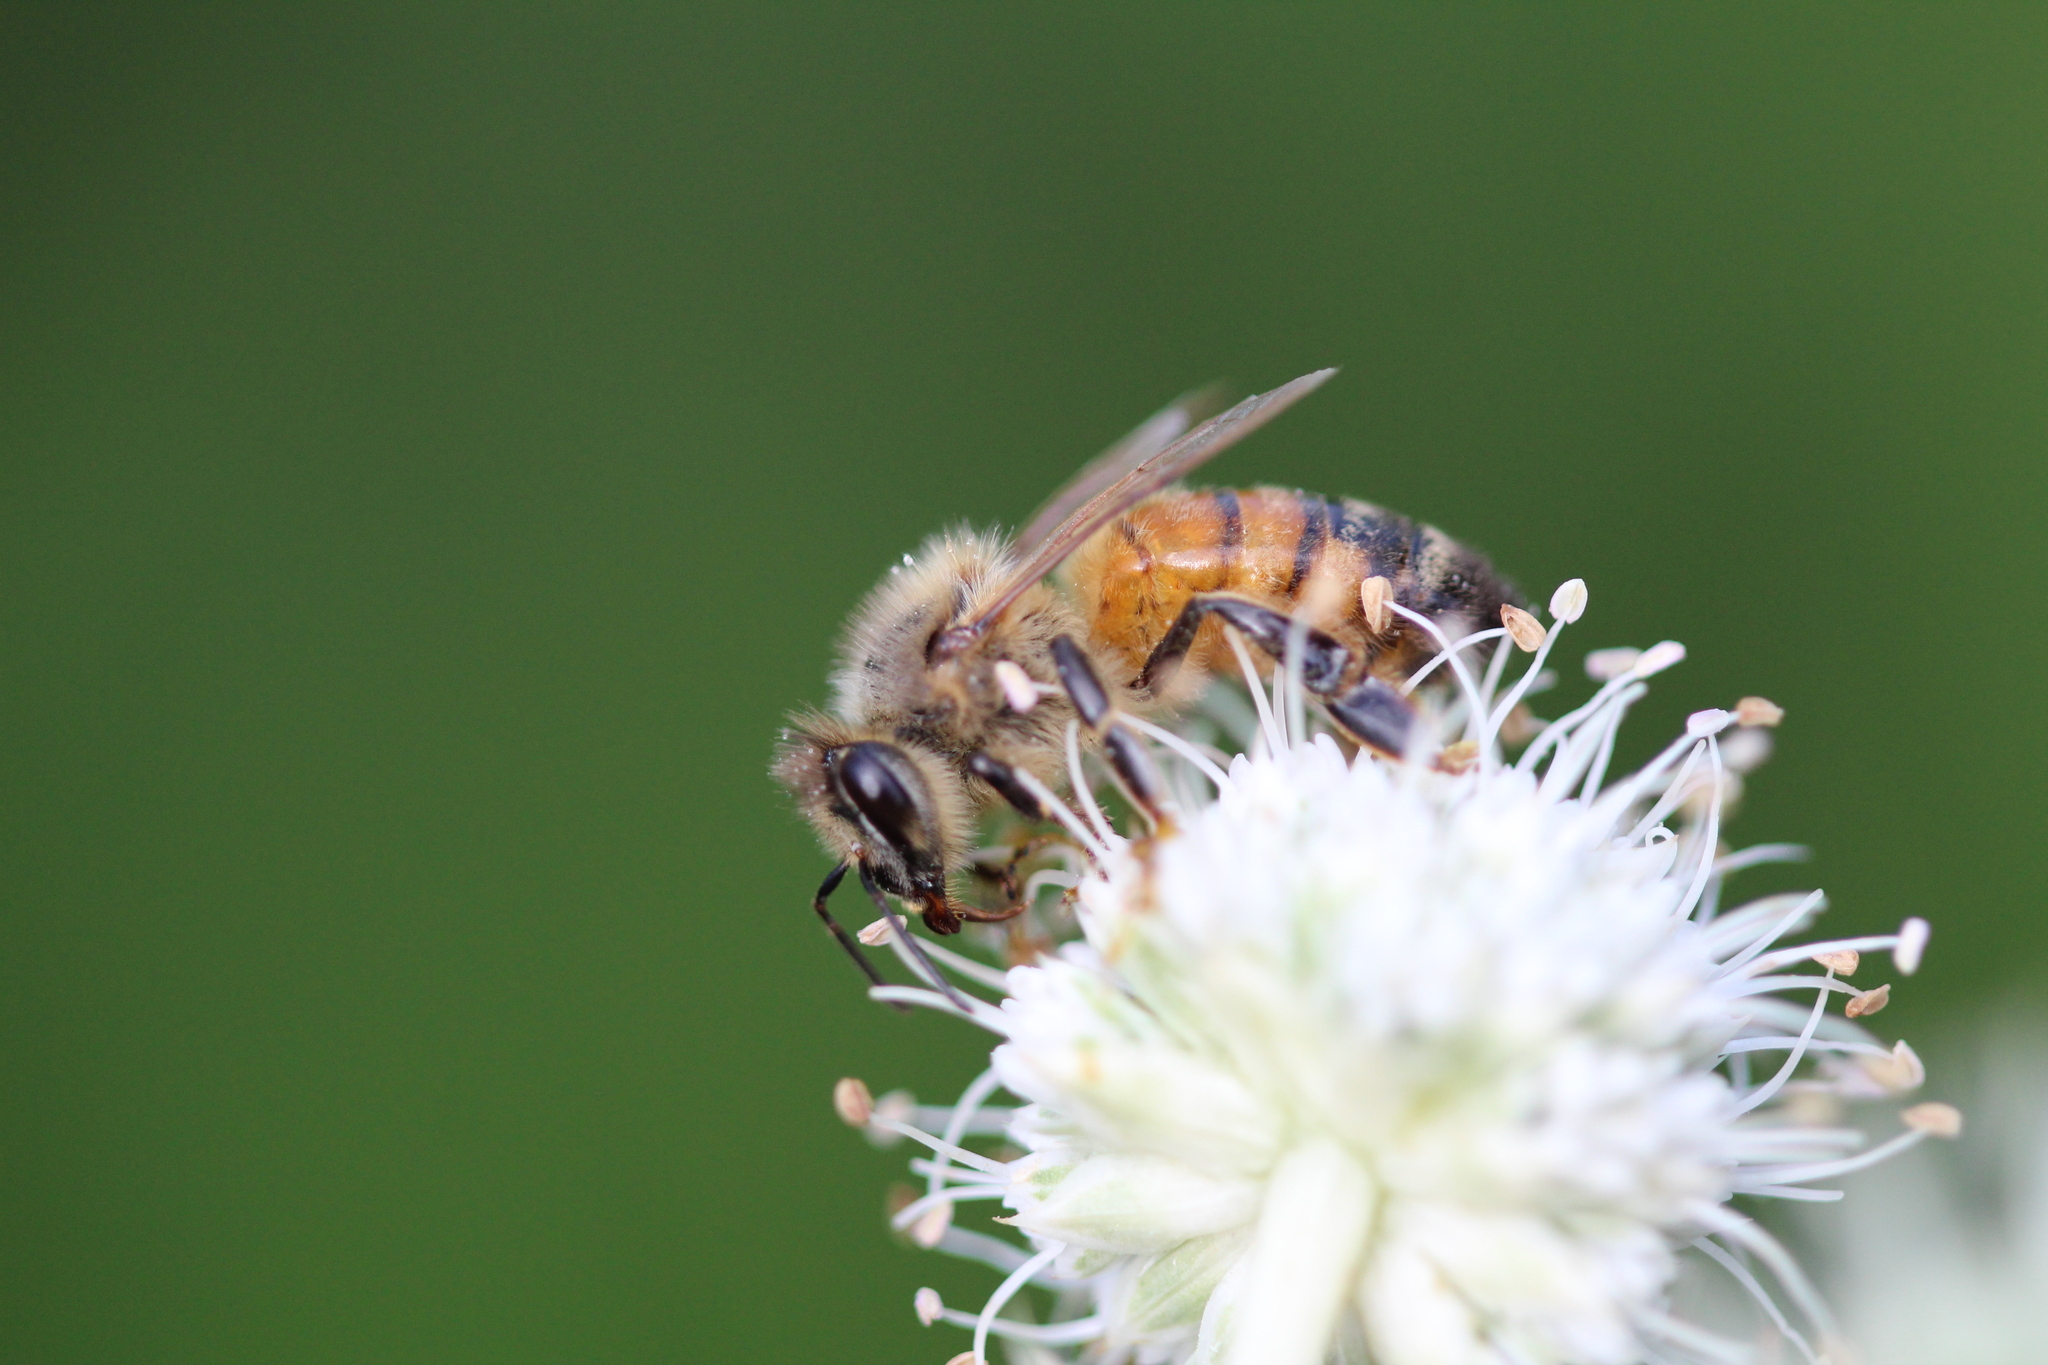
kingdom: Animalia
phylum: Arthropoda
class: Insecta
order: Hymenoptera
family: Apidae
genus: Apis
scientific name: Apis mellifera
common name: Honey bee
